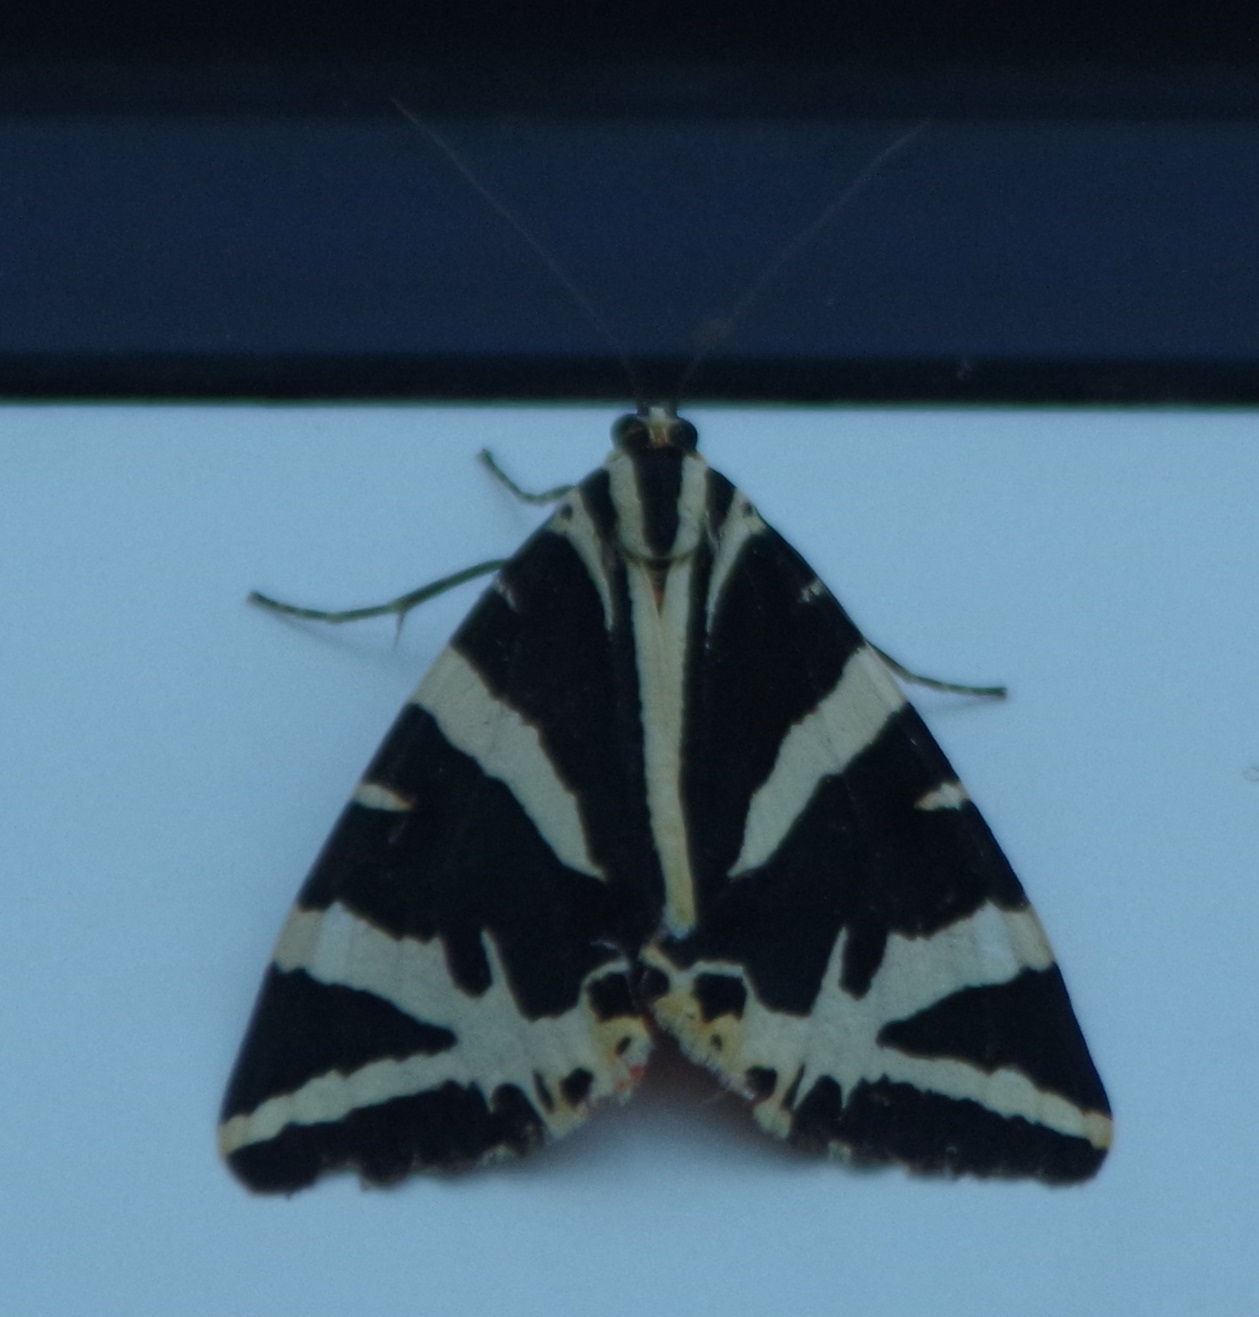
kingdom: Animalia
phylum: Arthropoda
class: Insecta
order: Lepidoptera
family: Erebidae
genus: Euplagia
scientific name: Euplagia quadripunctaria
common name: Jersey tiger
